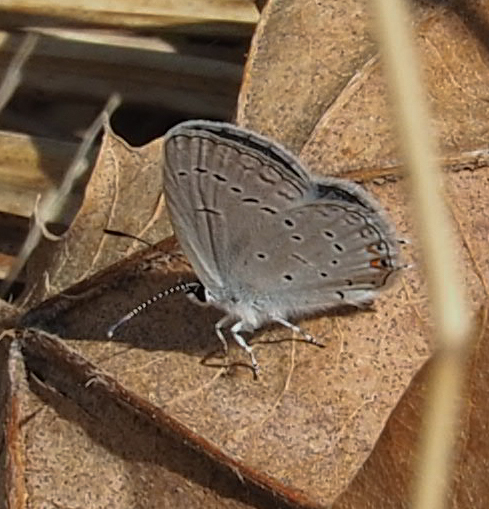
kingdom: Animalia
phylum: Arthropoda
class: Insecta
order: Lepidoptera
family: Lycaenidae
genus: Elkalyce
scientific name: Elkalyce comyntas
